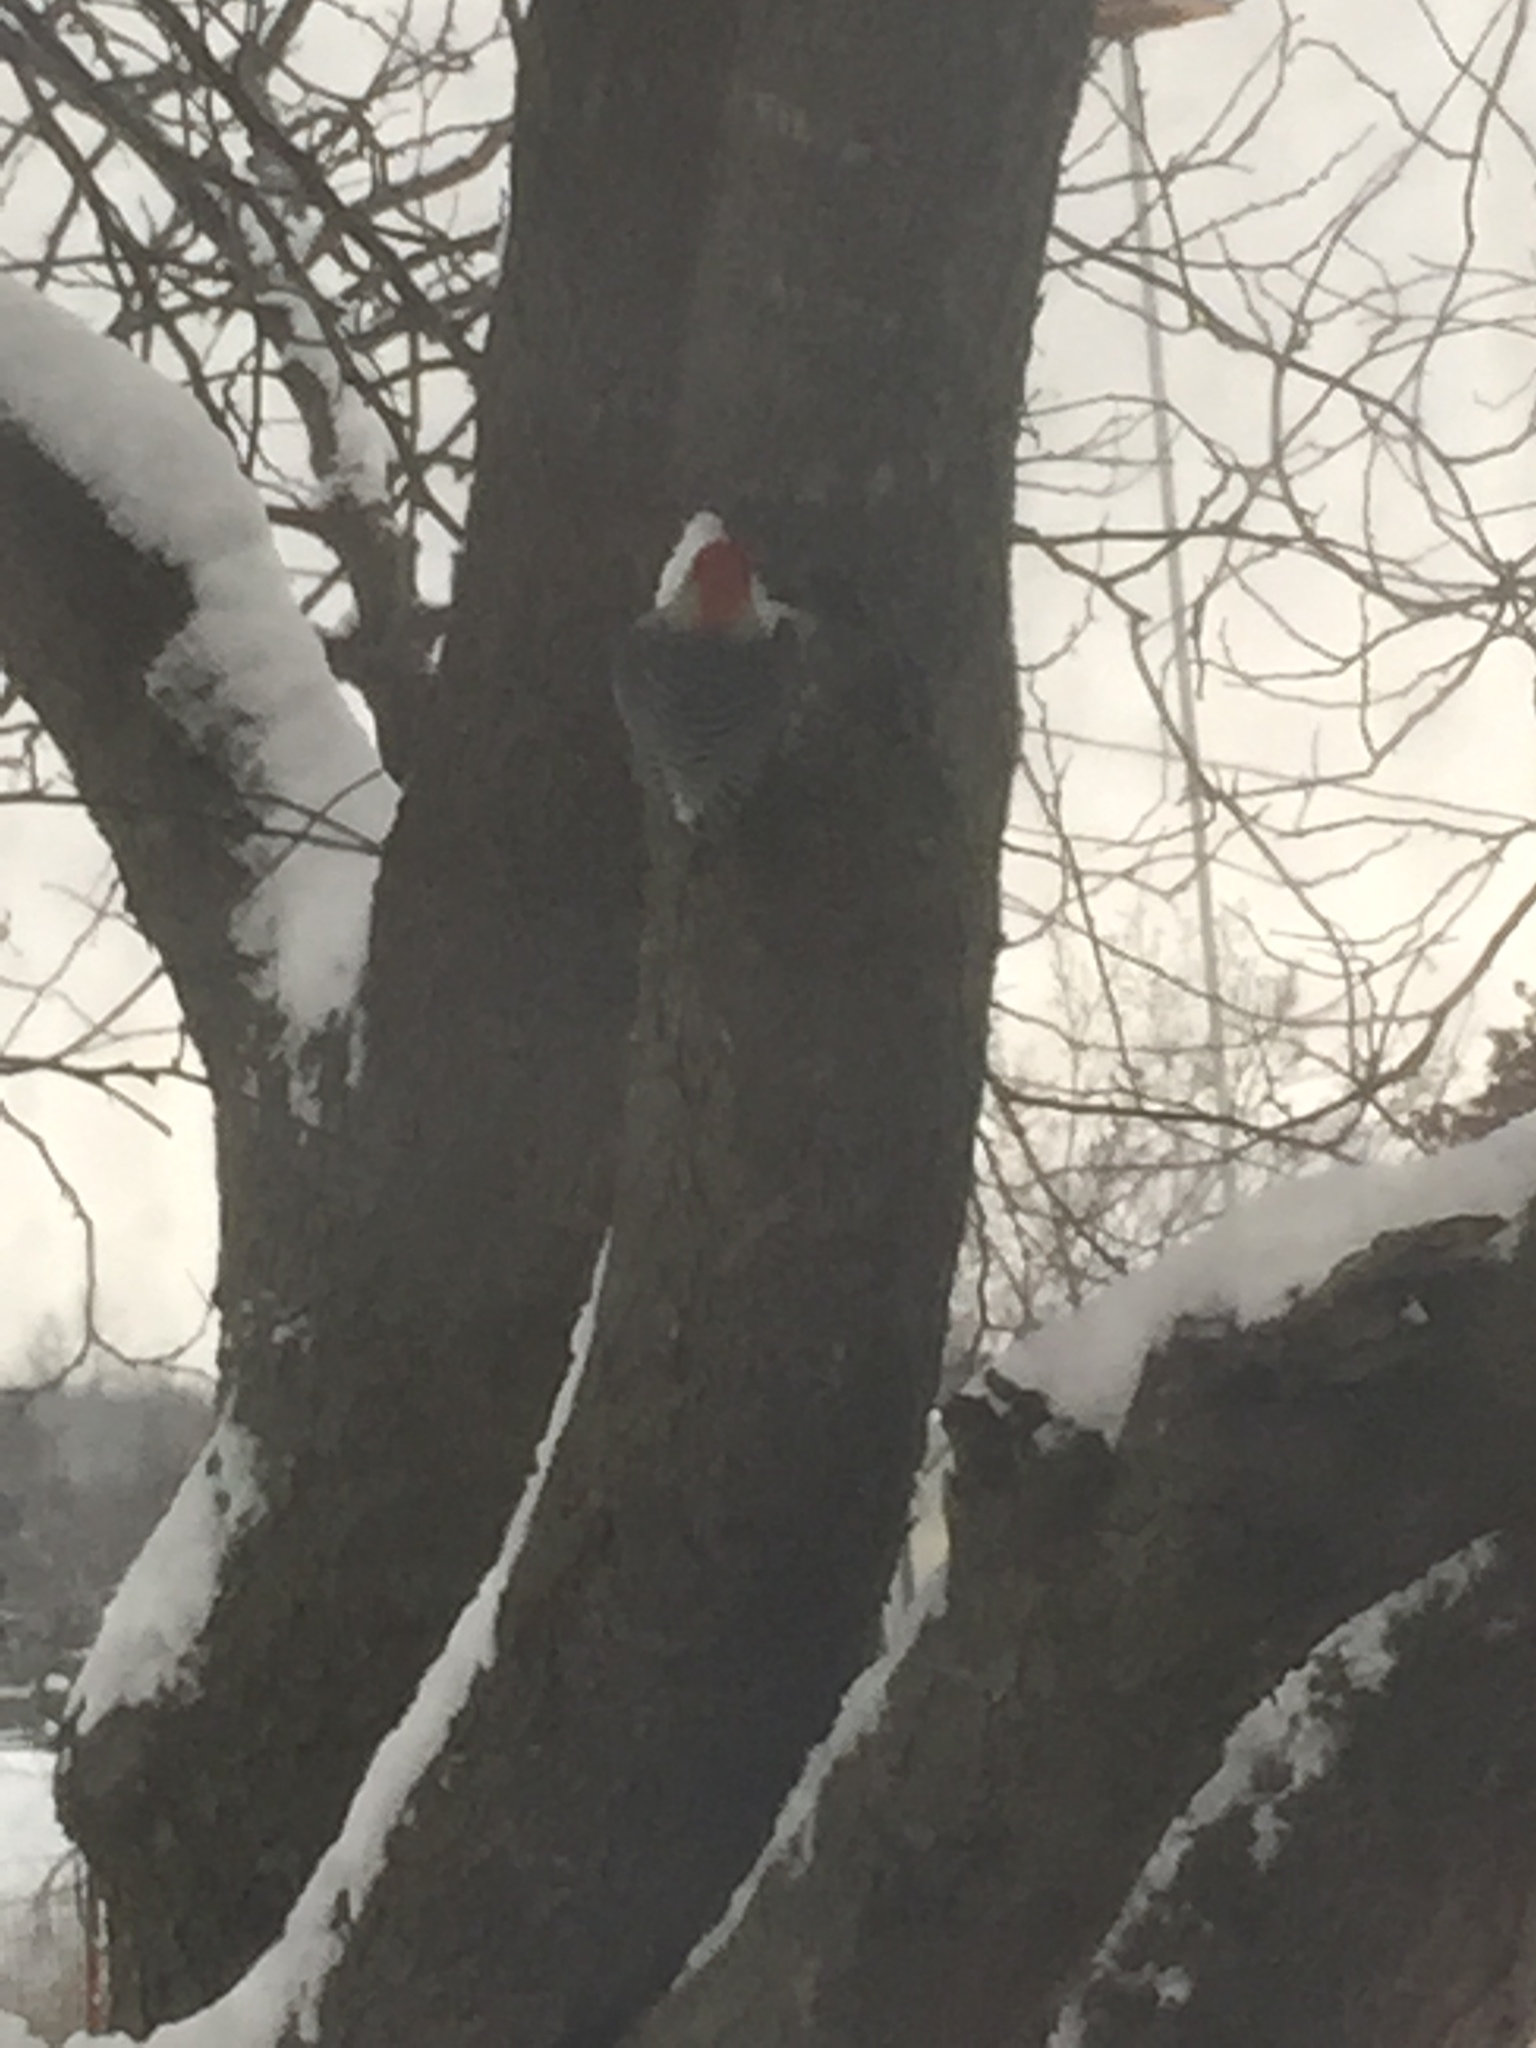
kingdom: Animalia
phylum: Chordata
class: Aves
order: Piciformes
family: Picidae
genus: Melanerpes
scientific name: Melanerpes carolinus
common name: Red-bellied woodpecker
